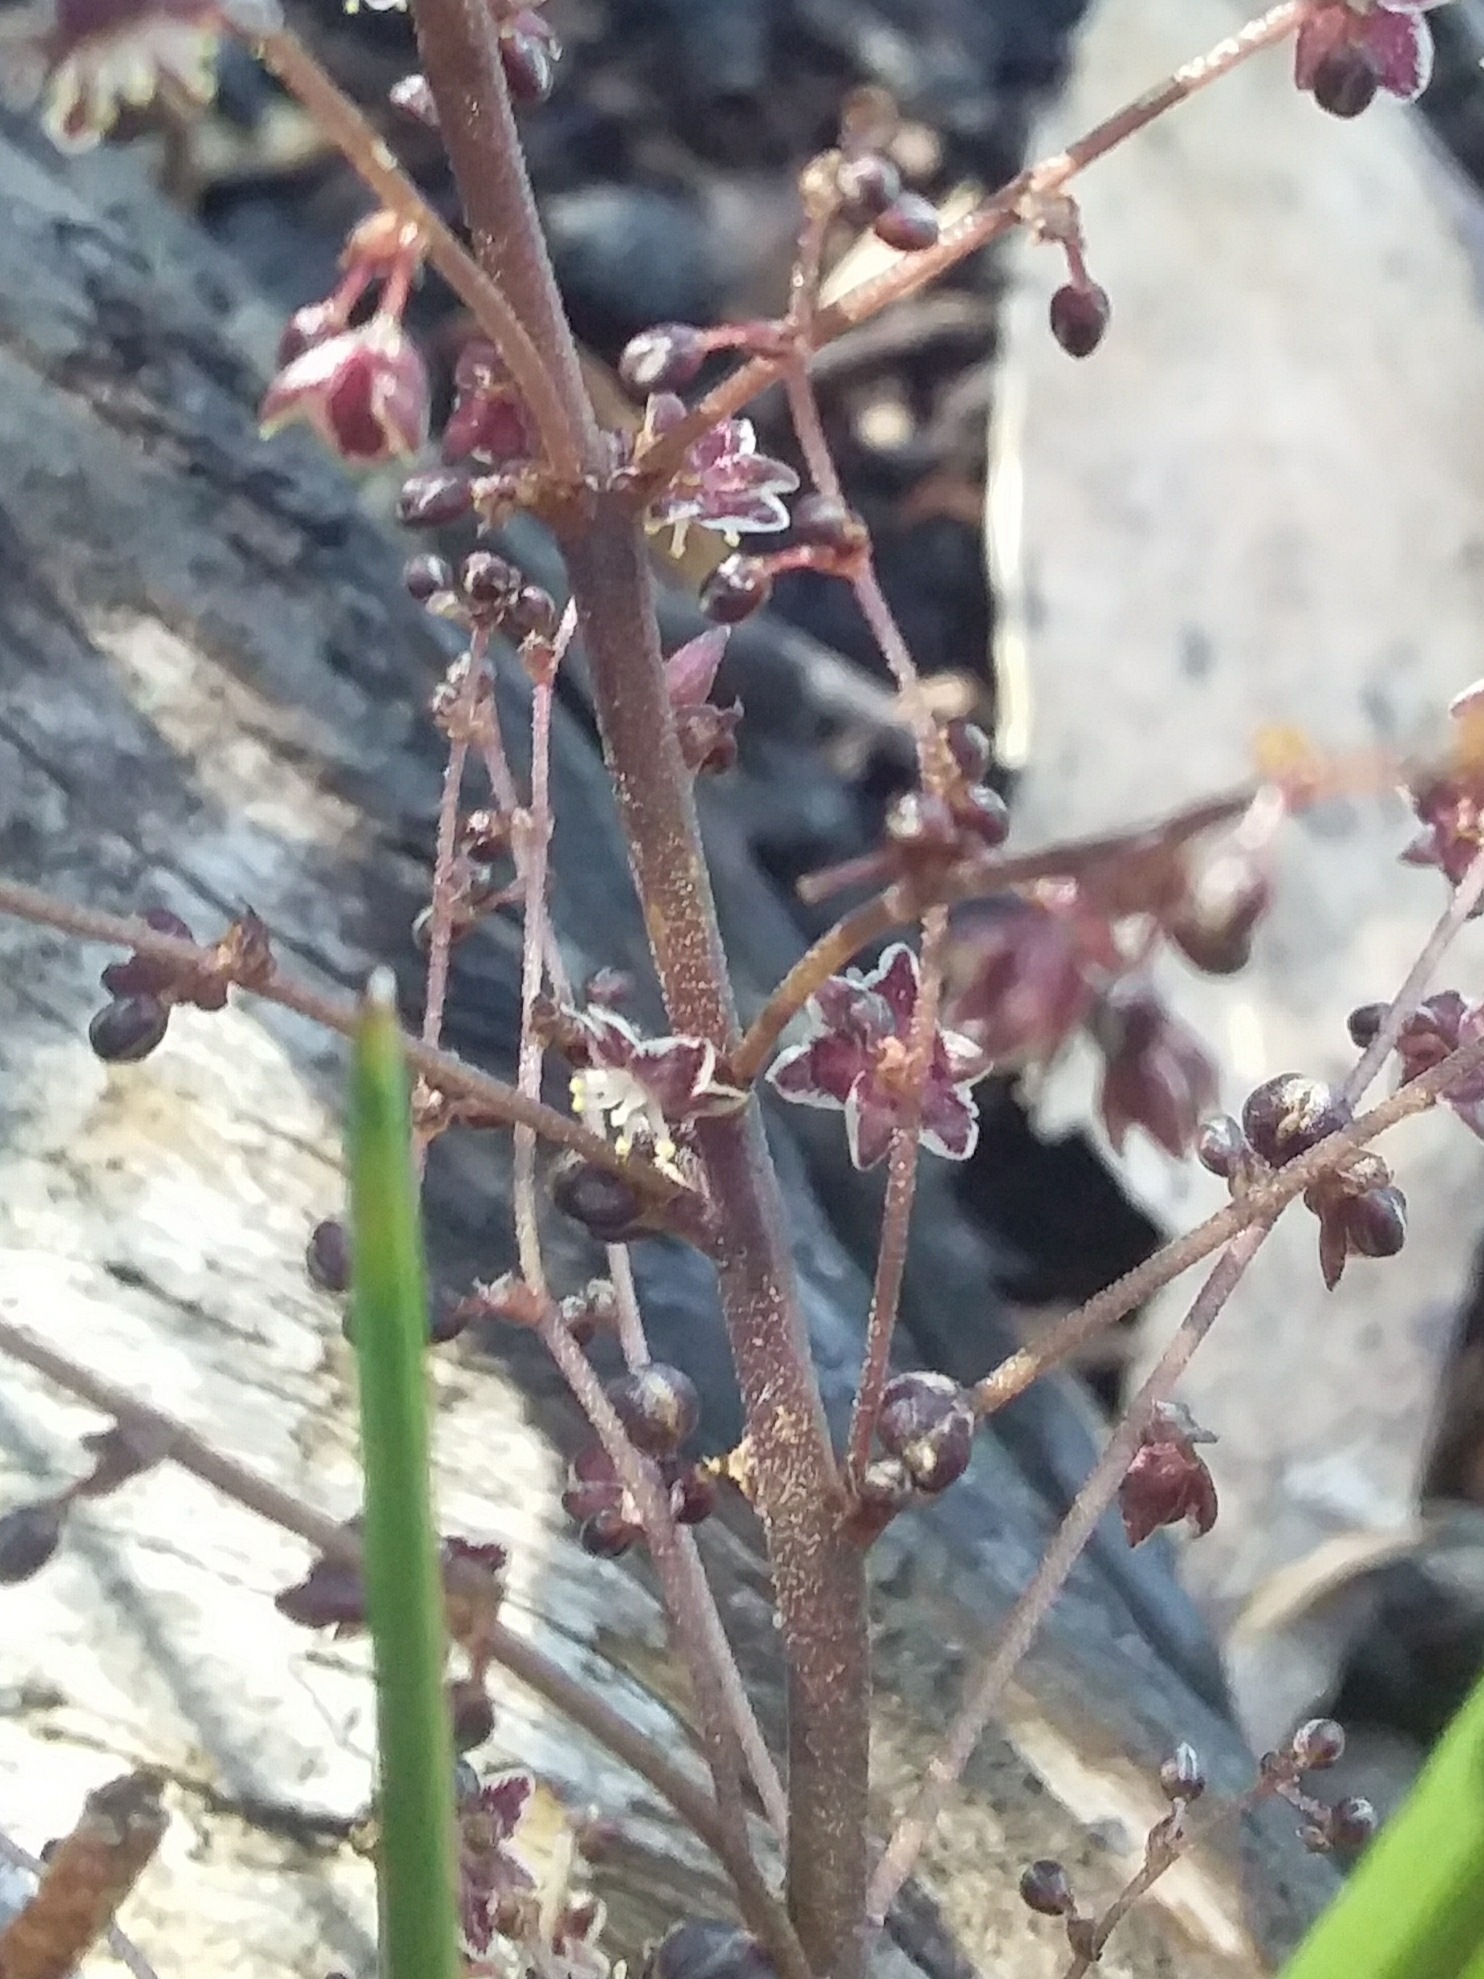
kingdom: Plantae
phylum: Tracheophyta
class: Liliopsida
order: Asparagales
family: Asparagaceae
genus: Lomandra
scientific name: Lomandra micrantha
